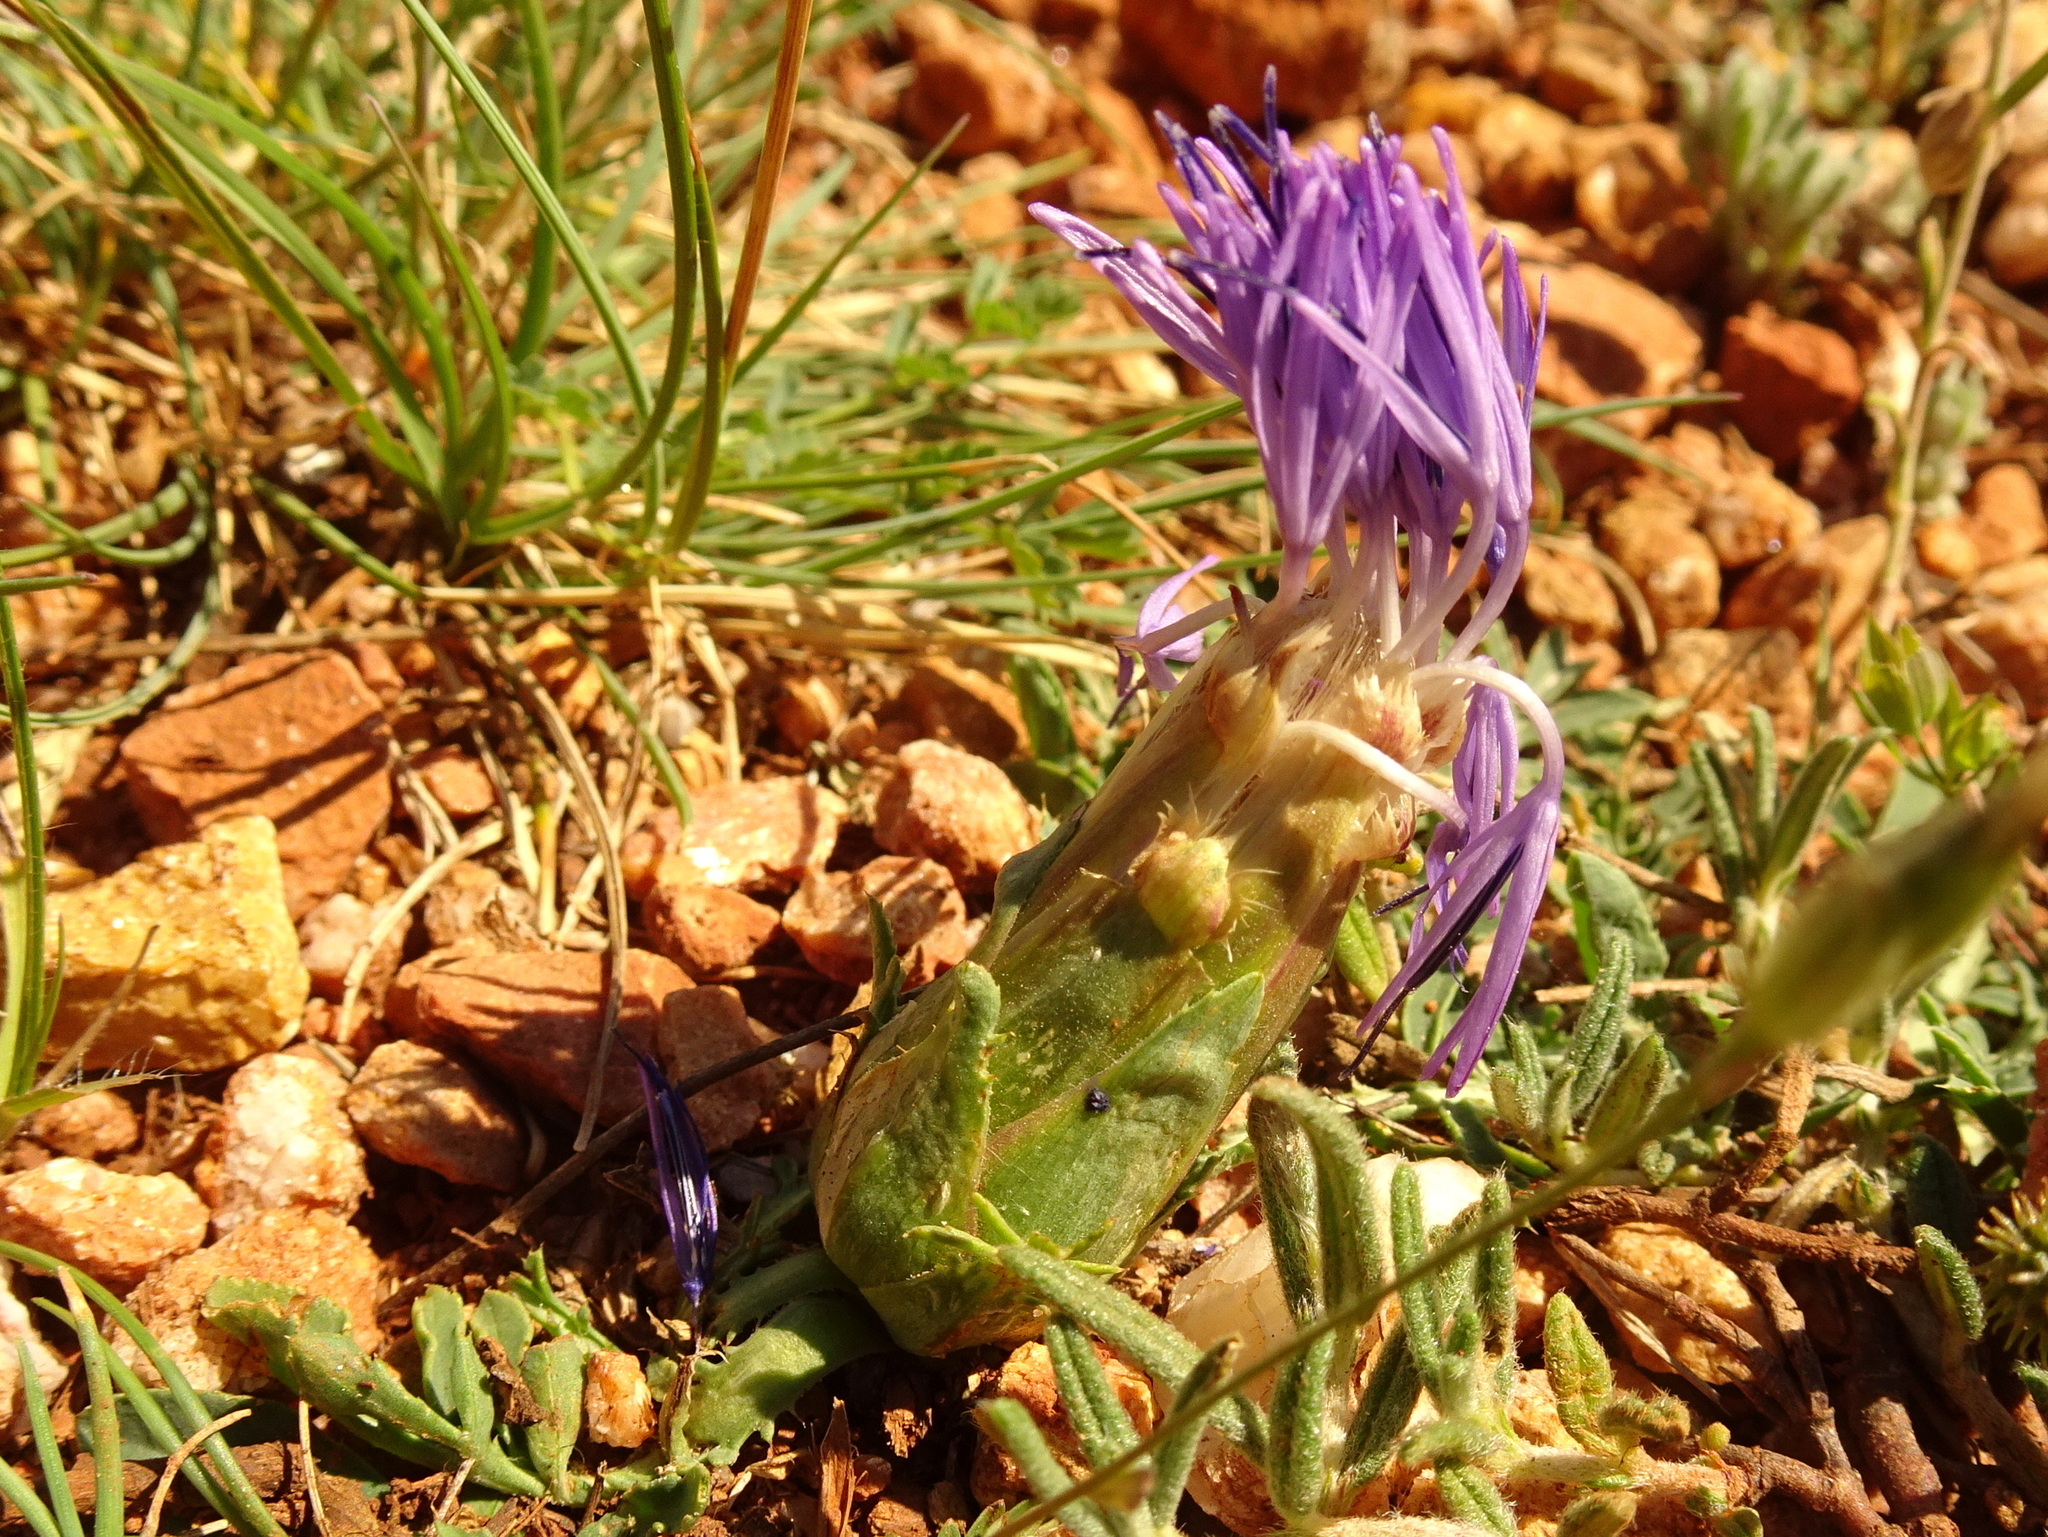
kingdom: Plantae
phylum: Tracheophyta
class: Magnoliopsida
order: Asterales
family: Asteraceae
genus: Carduncellus
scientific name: Carduncellus mitissimus
